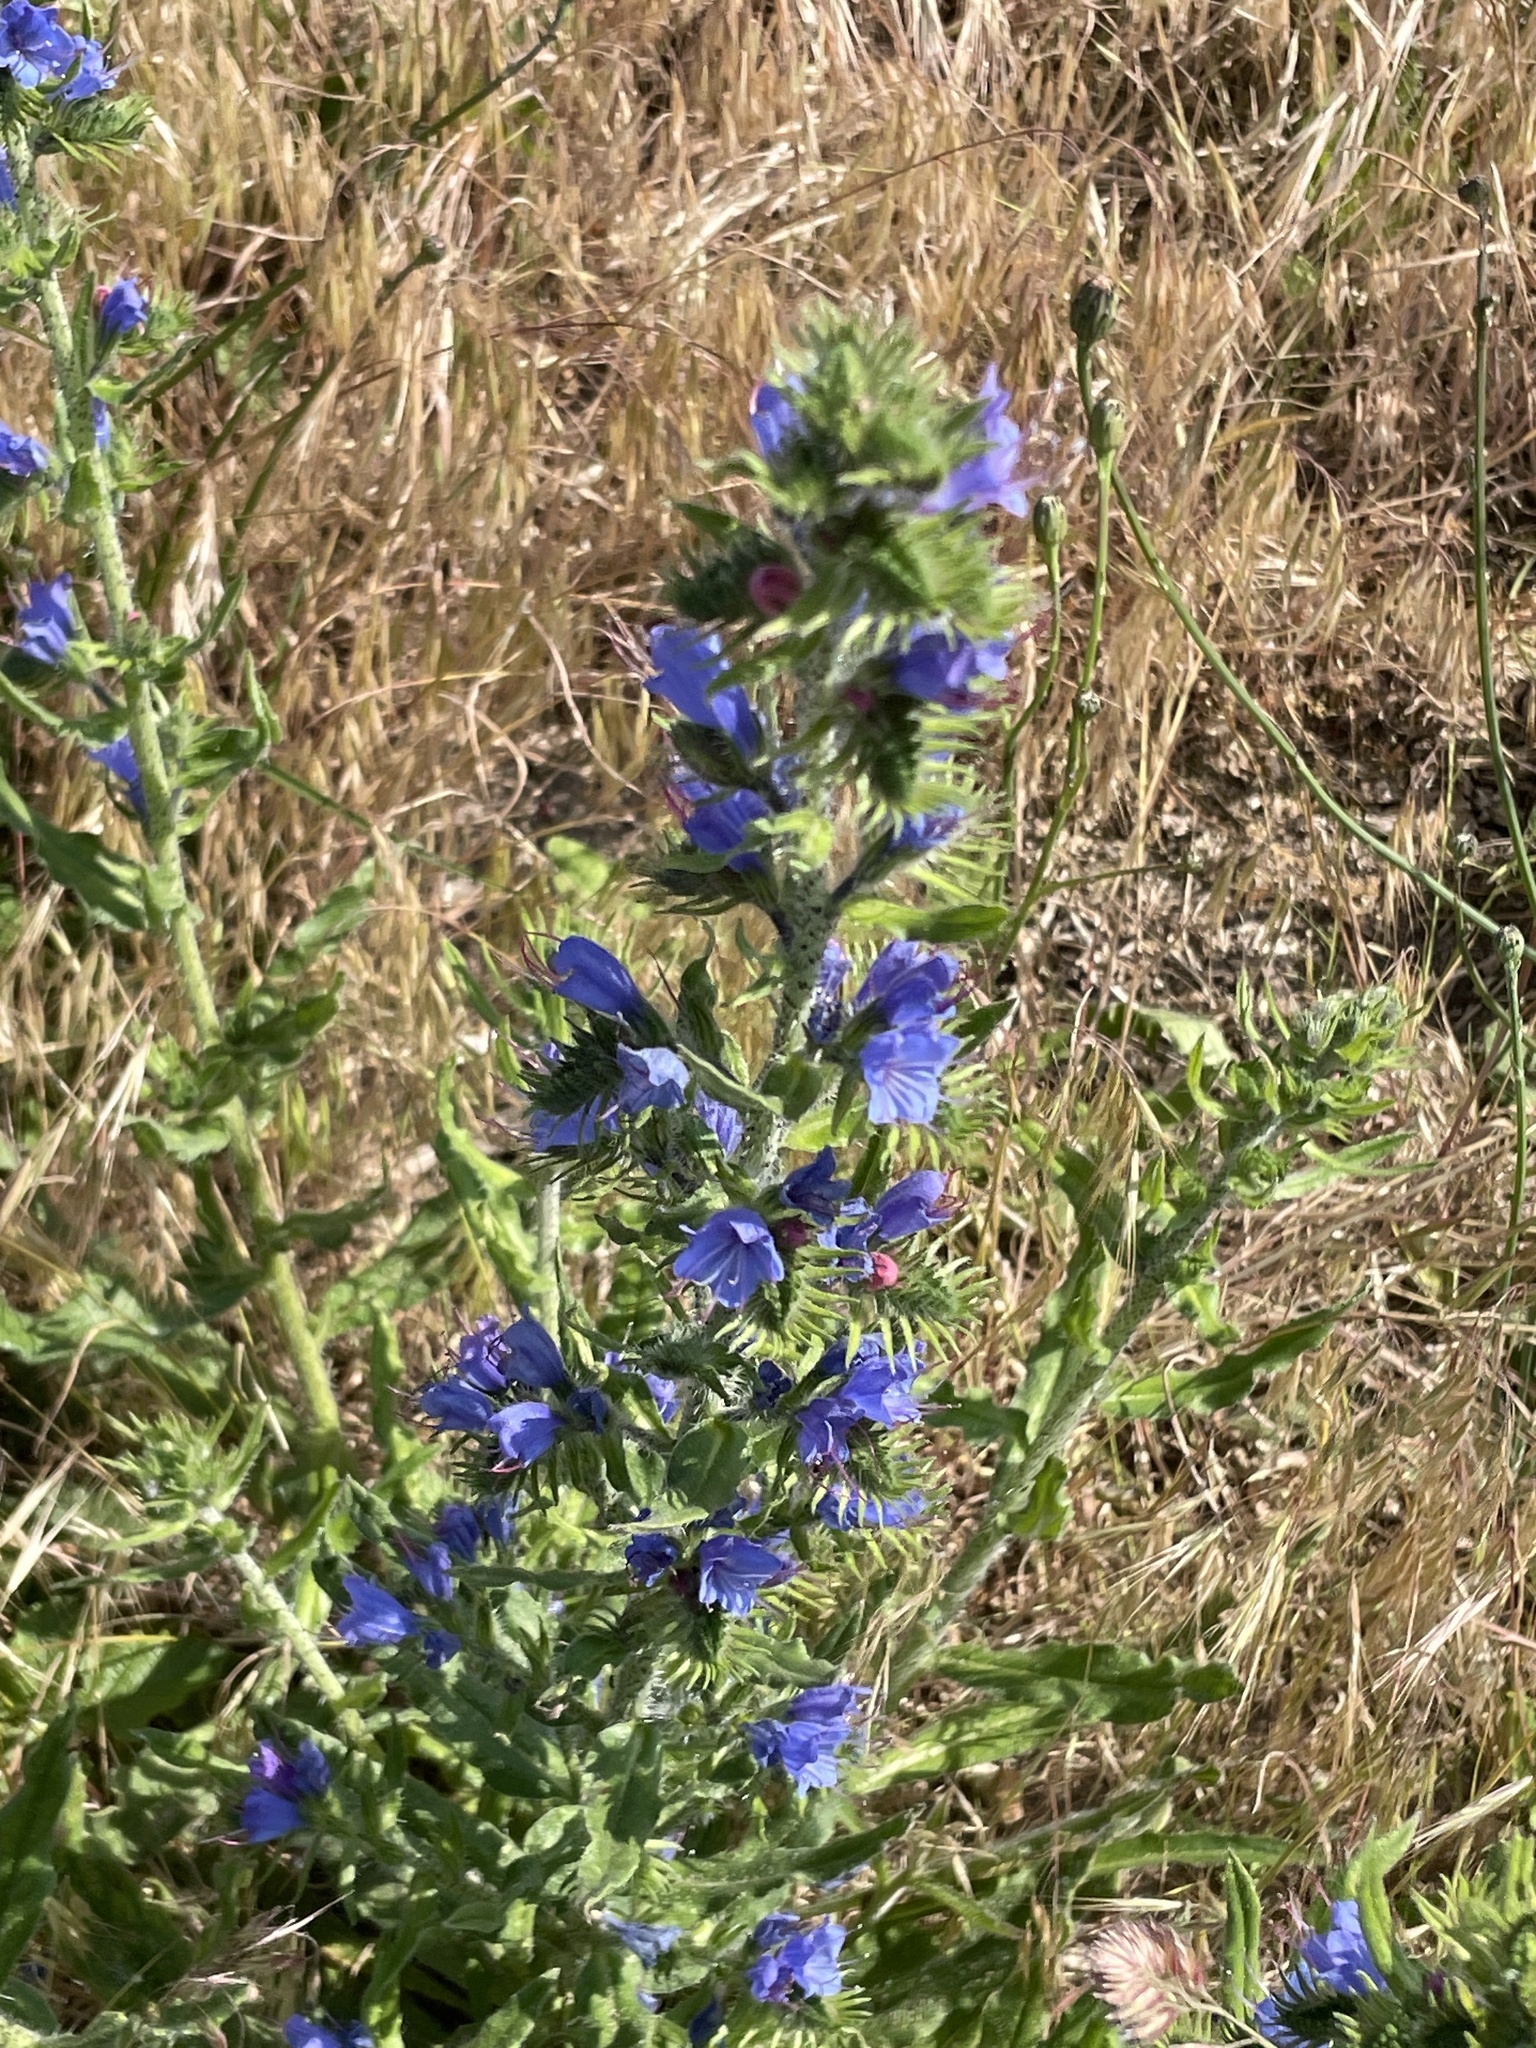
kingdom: Plantae
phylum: Tracheophyta
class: Magnoliopsida
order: Boraginales
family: Boraginaceae
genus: Echium
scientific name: Echium vulgare
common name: Common viper's bugloss
